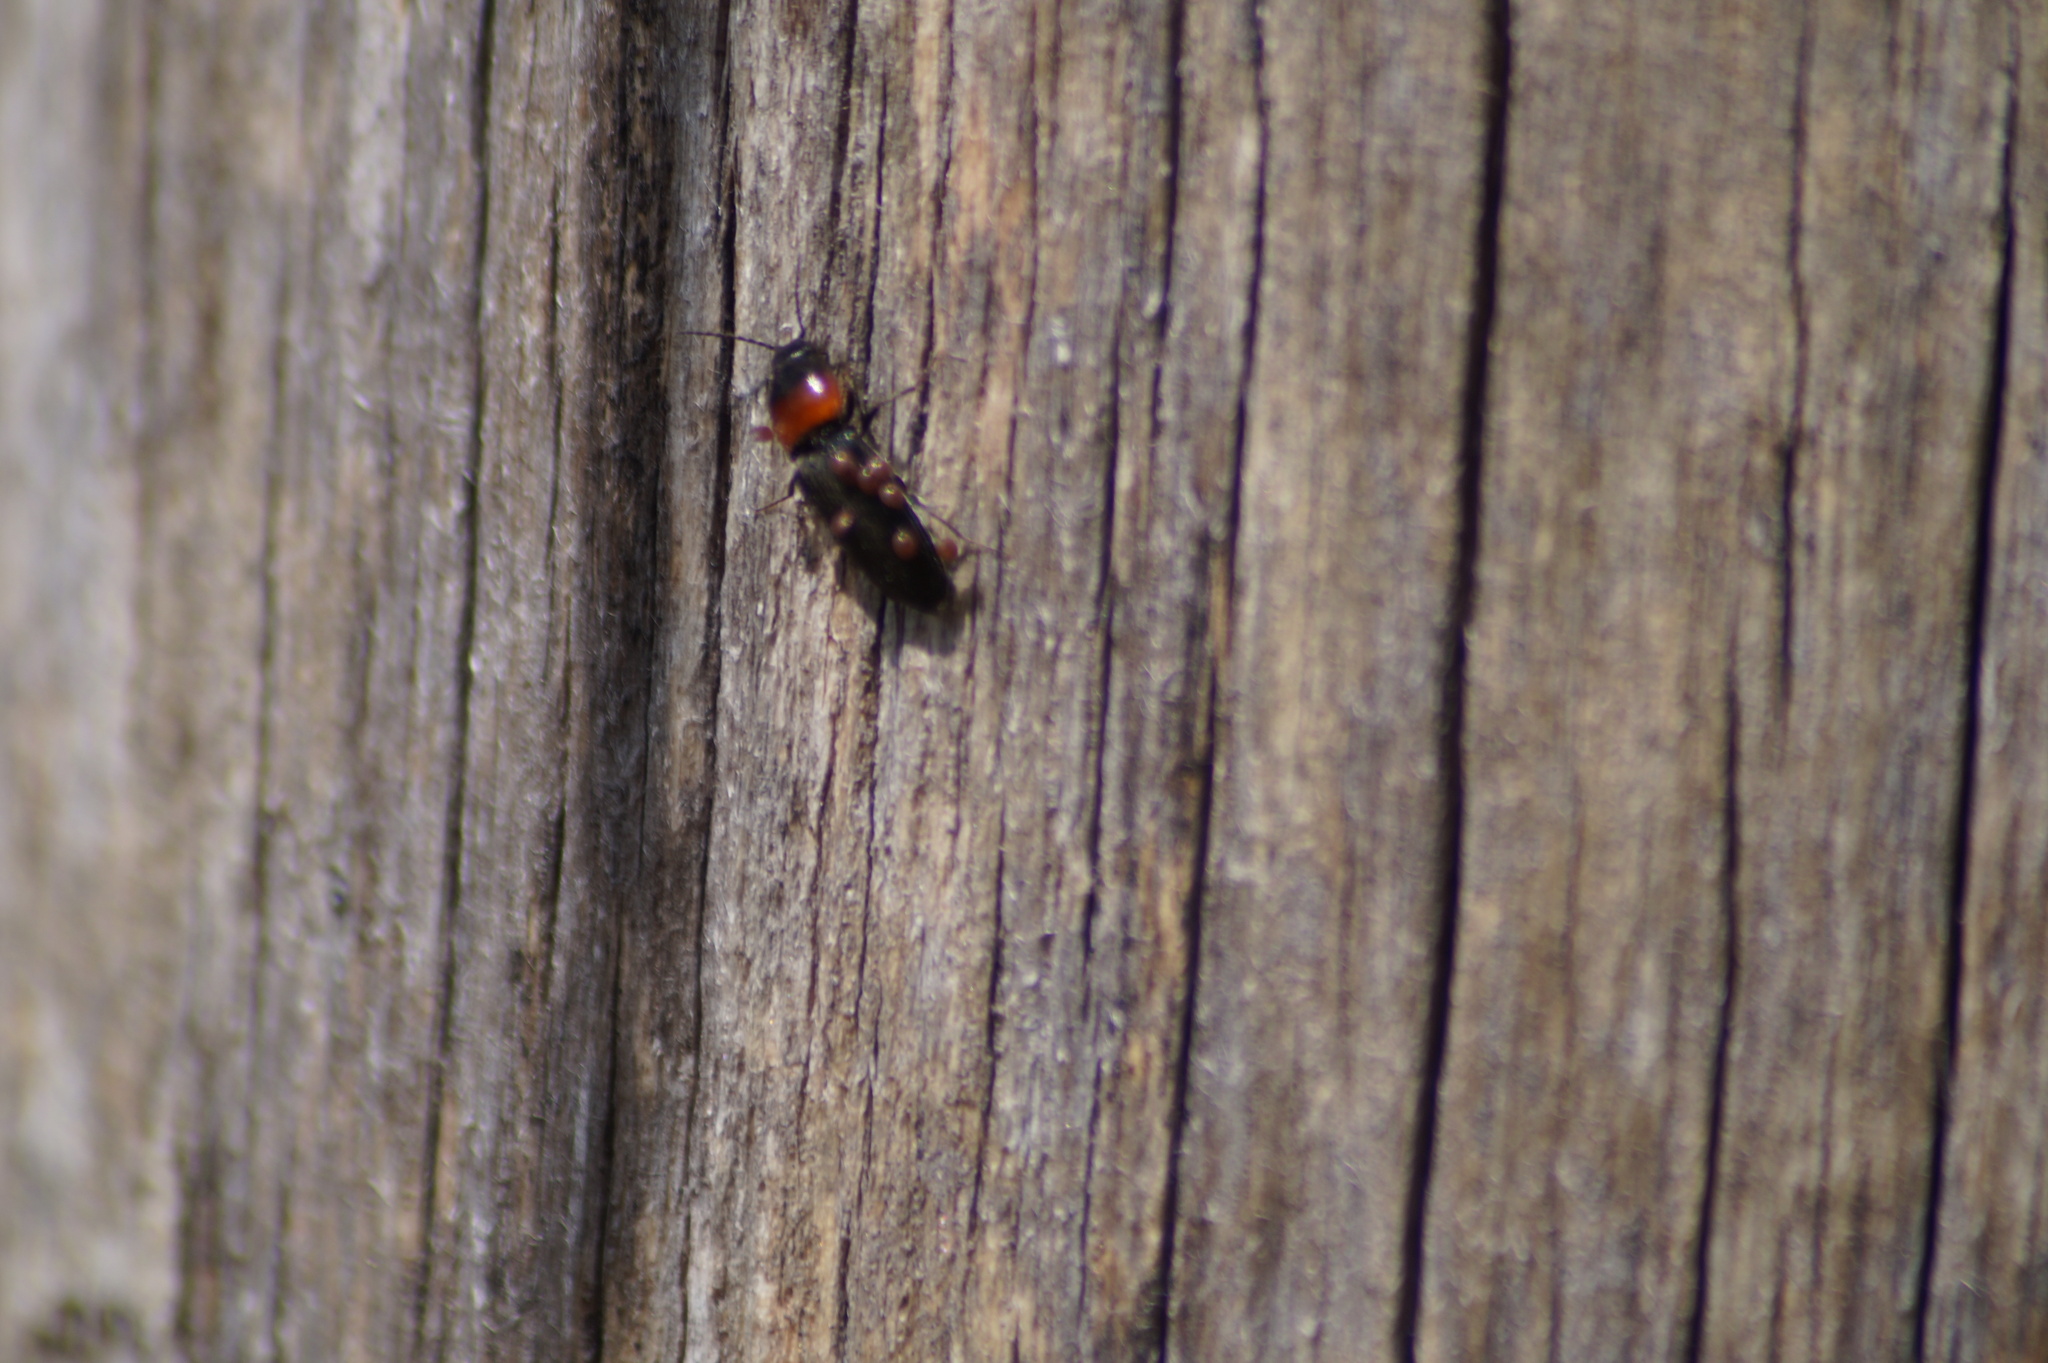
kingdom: Animalia
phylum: Arthropoda
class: Insecta
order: Coleoptera
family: Elateridae
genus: Cardiophorus
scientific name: Cardiophorus ruficollis
